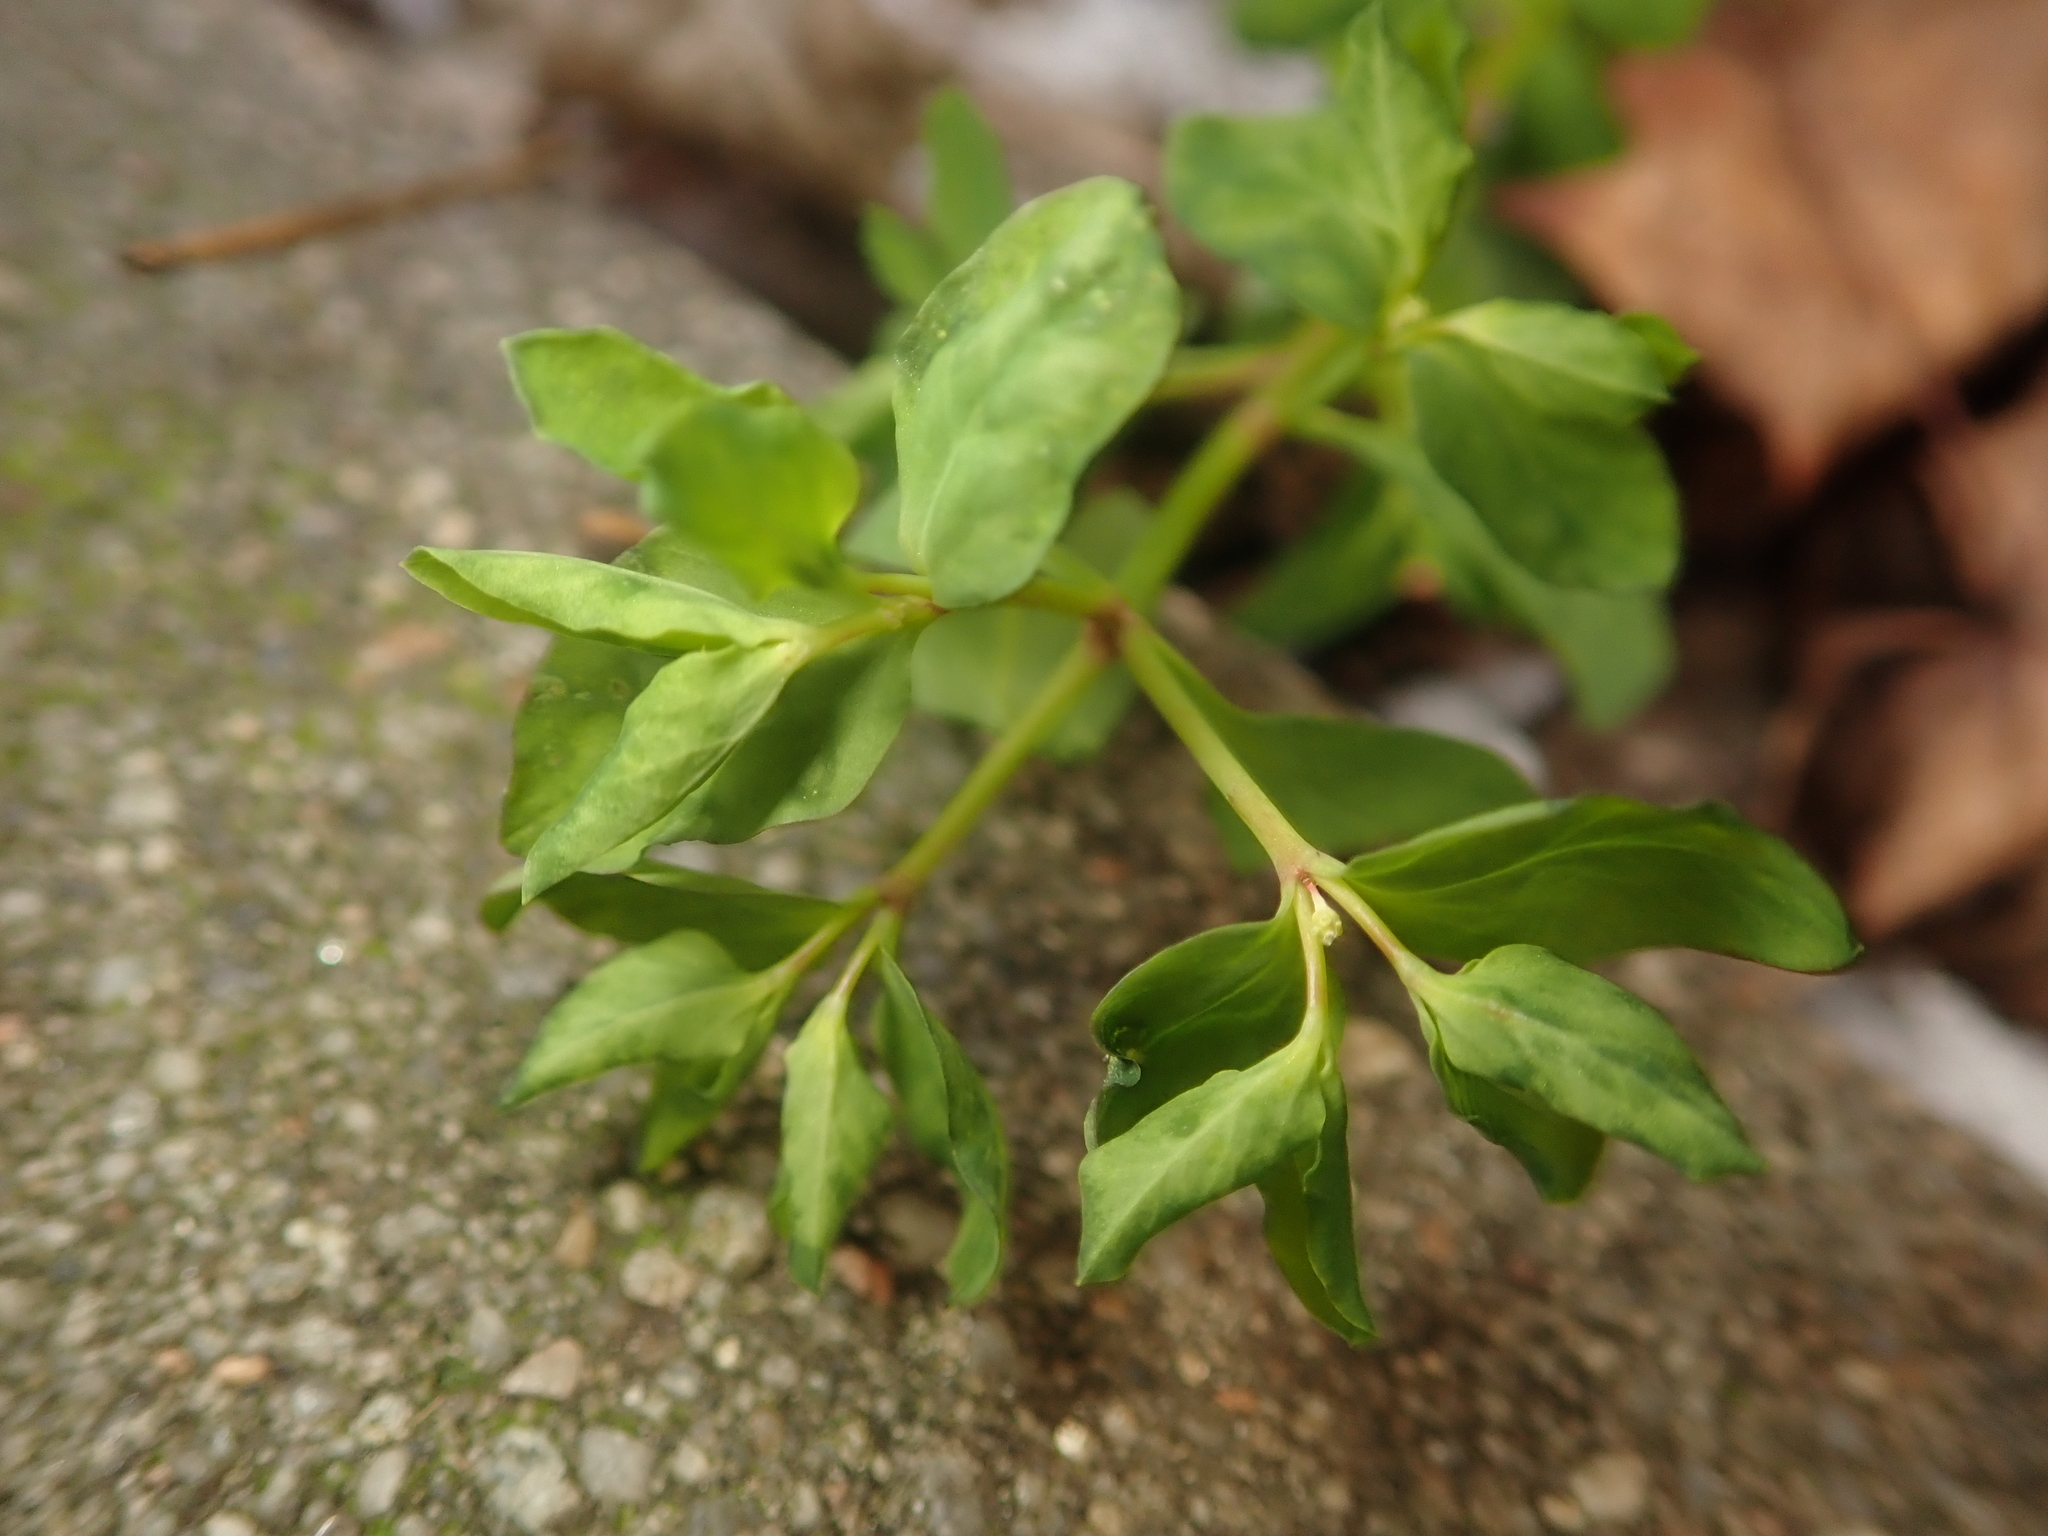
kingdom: Plantae
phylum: Tracheophyta
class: Magnoliopsida
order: Malpighiales
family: Euphorbiaceae
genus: Euphorbia
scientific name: Euphorbia peplus
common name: Petty spurge
